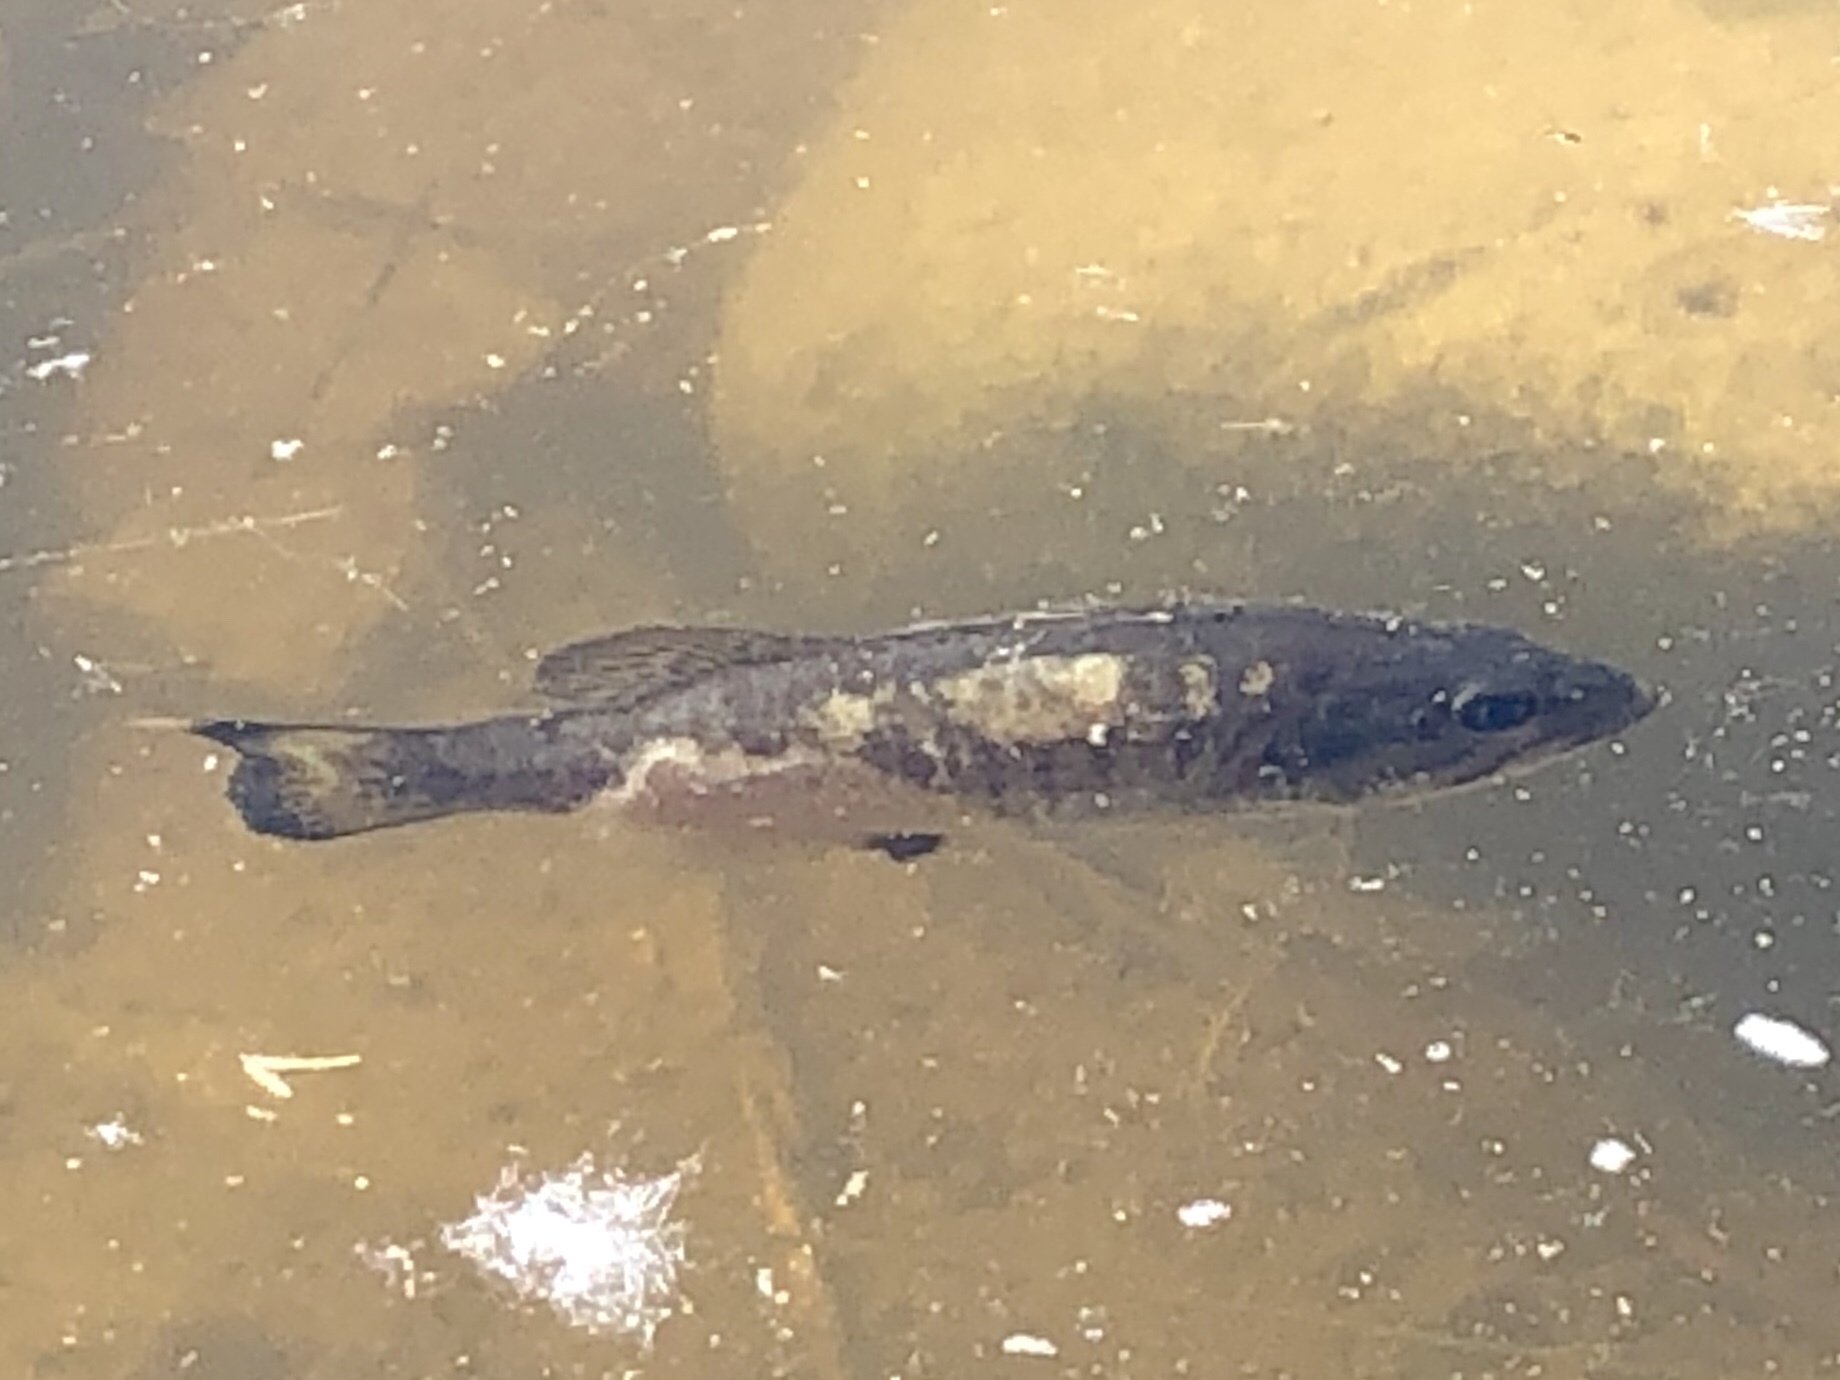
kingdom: Animalia
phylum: Chordata
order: Perciformes
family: Centrarchidae
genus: Micropterus
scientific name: Micropterus dolomieu
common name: Smallmouth bass
